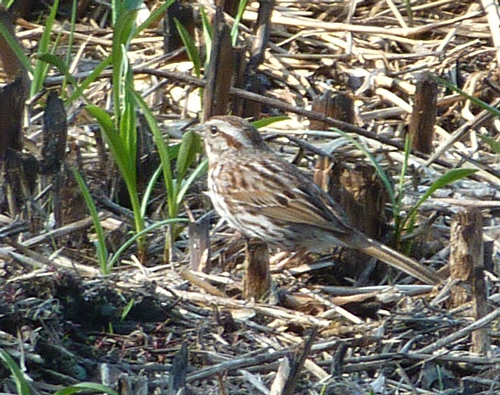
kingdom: Animalia
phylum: Chordata
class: Aves
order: Passeriformes
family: Passerellidae
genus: Melospiza
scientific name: Melospiza melodia
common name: Song sparrow
